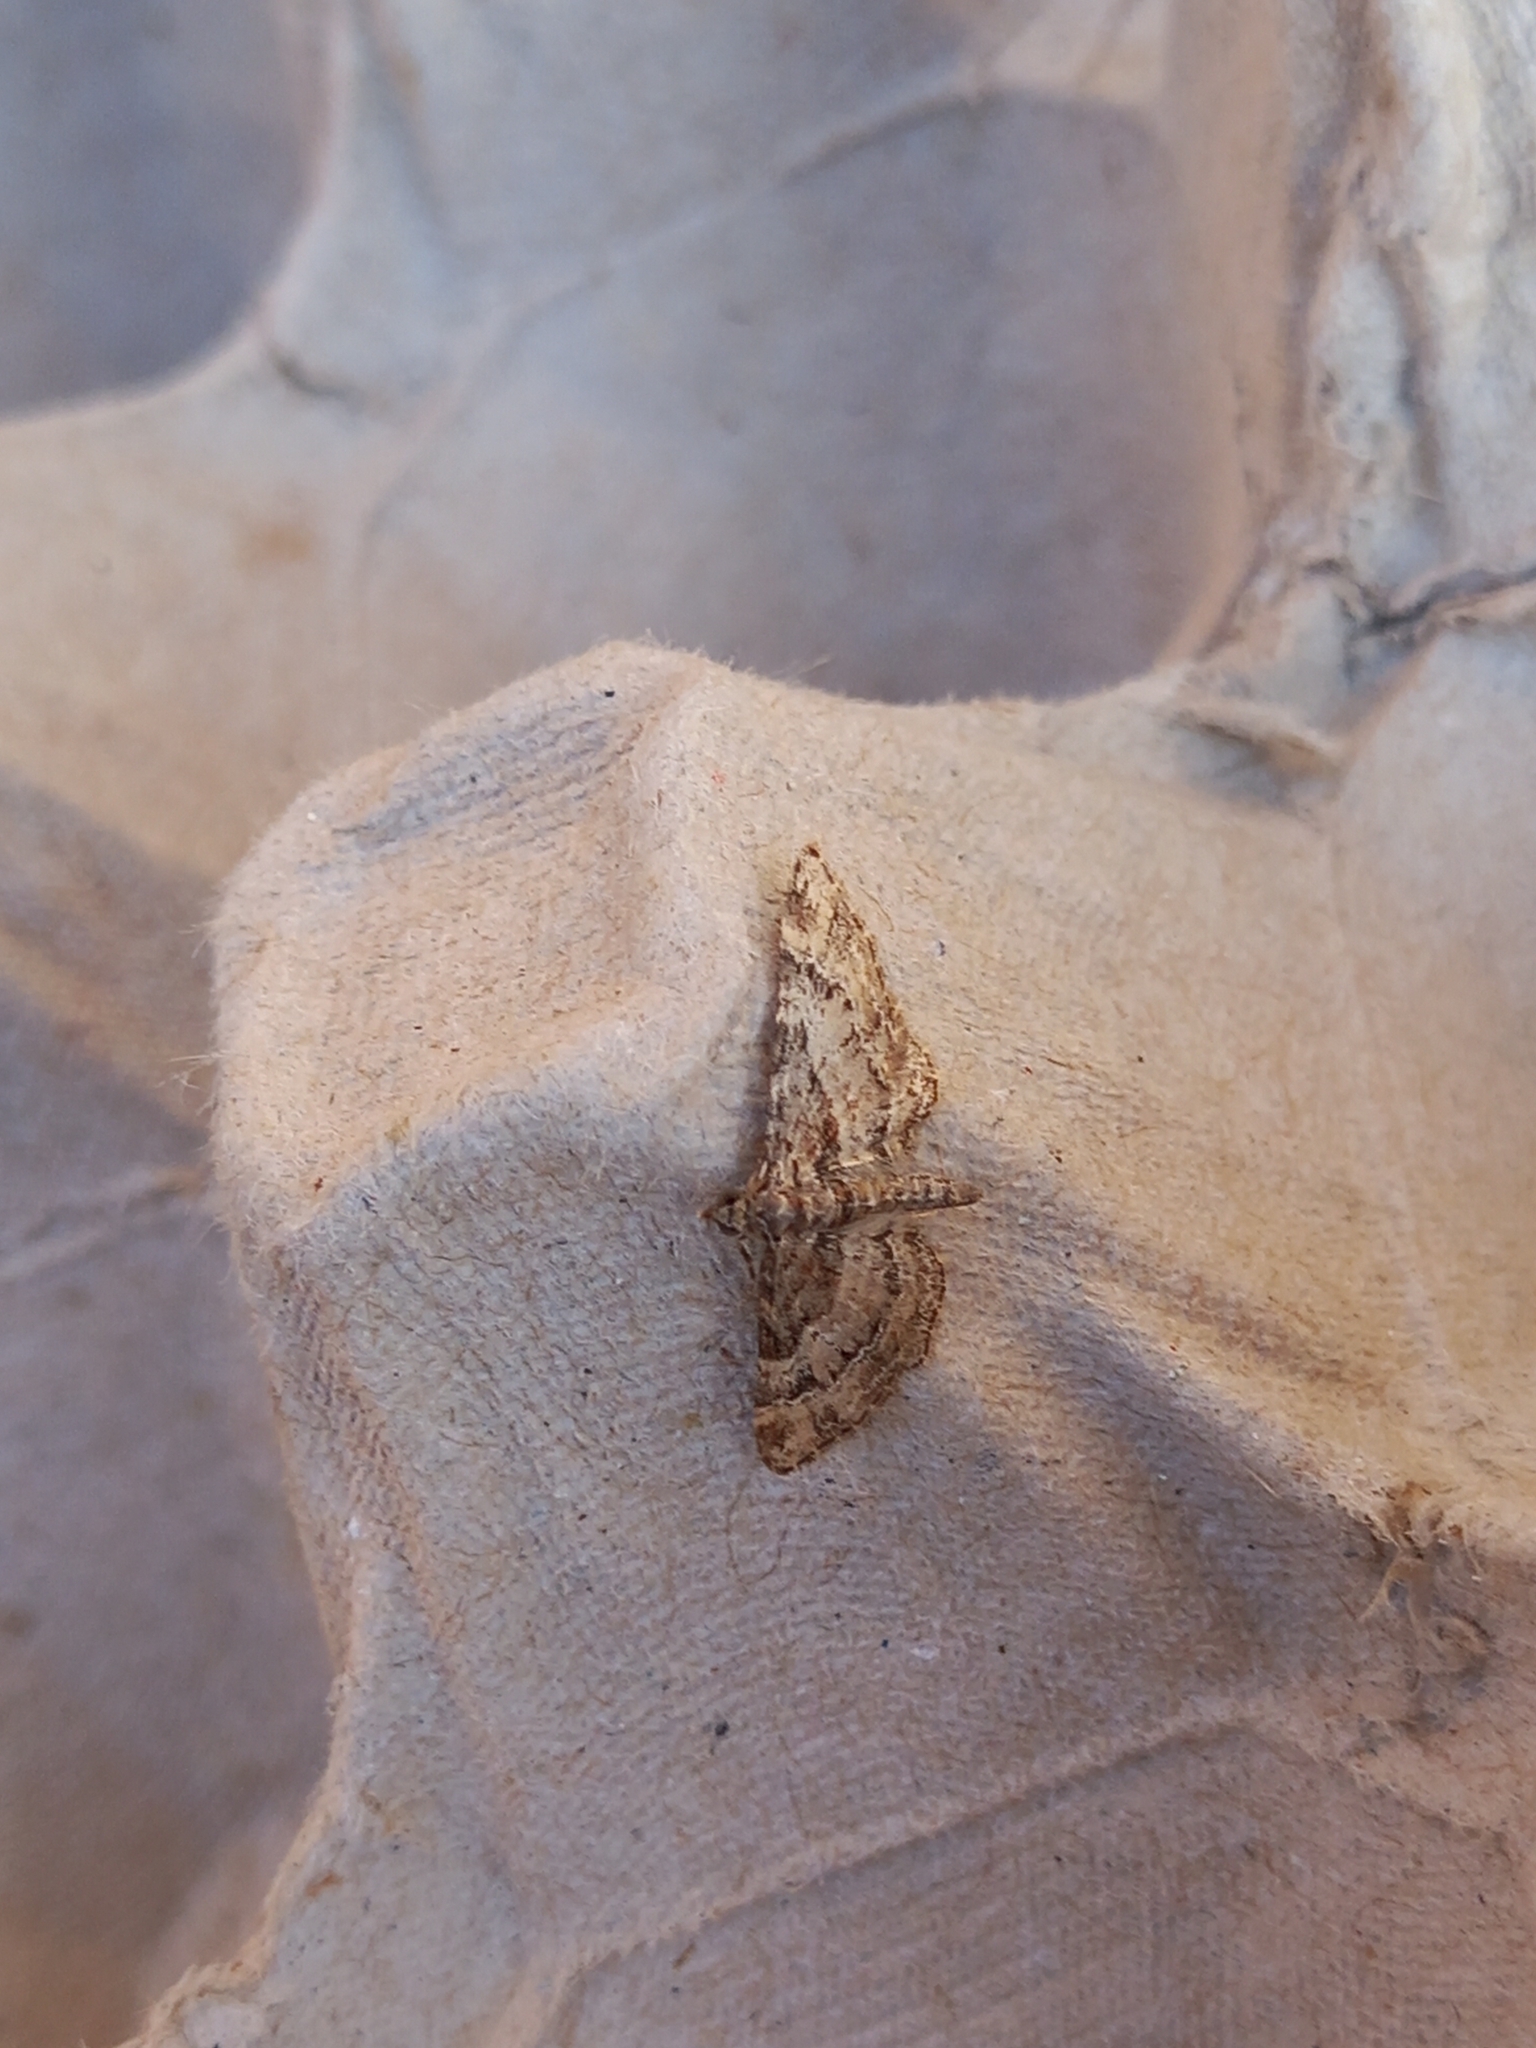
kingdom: Animalia
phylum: Arthropoda
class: Insecta
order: Lepidoptera
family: Geometridae
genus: Gymnoscelis
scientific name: Gymnoscelis rufifasciata
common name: Double-striped pug
